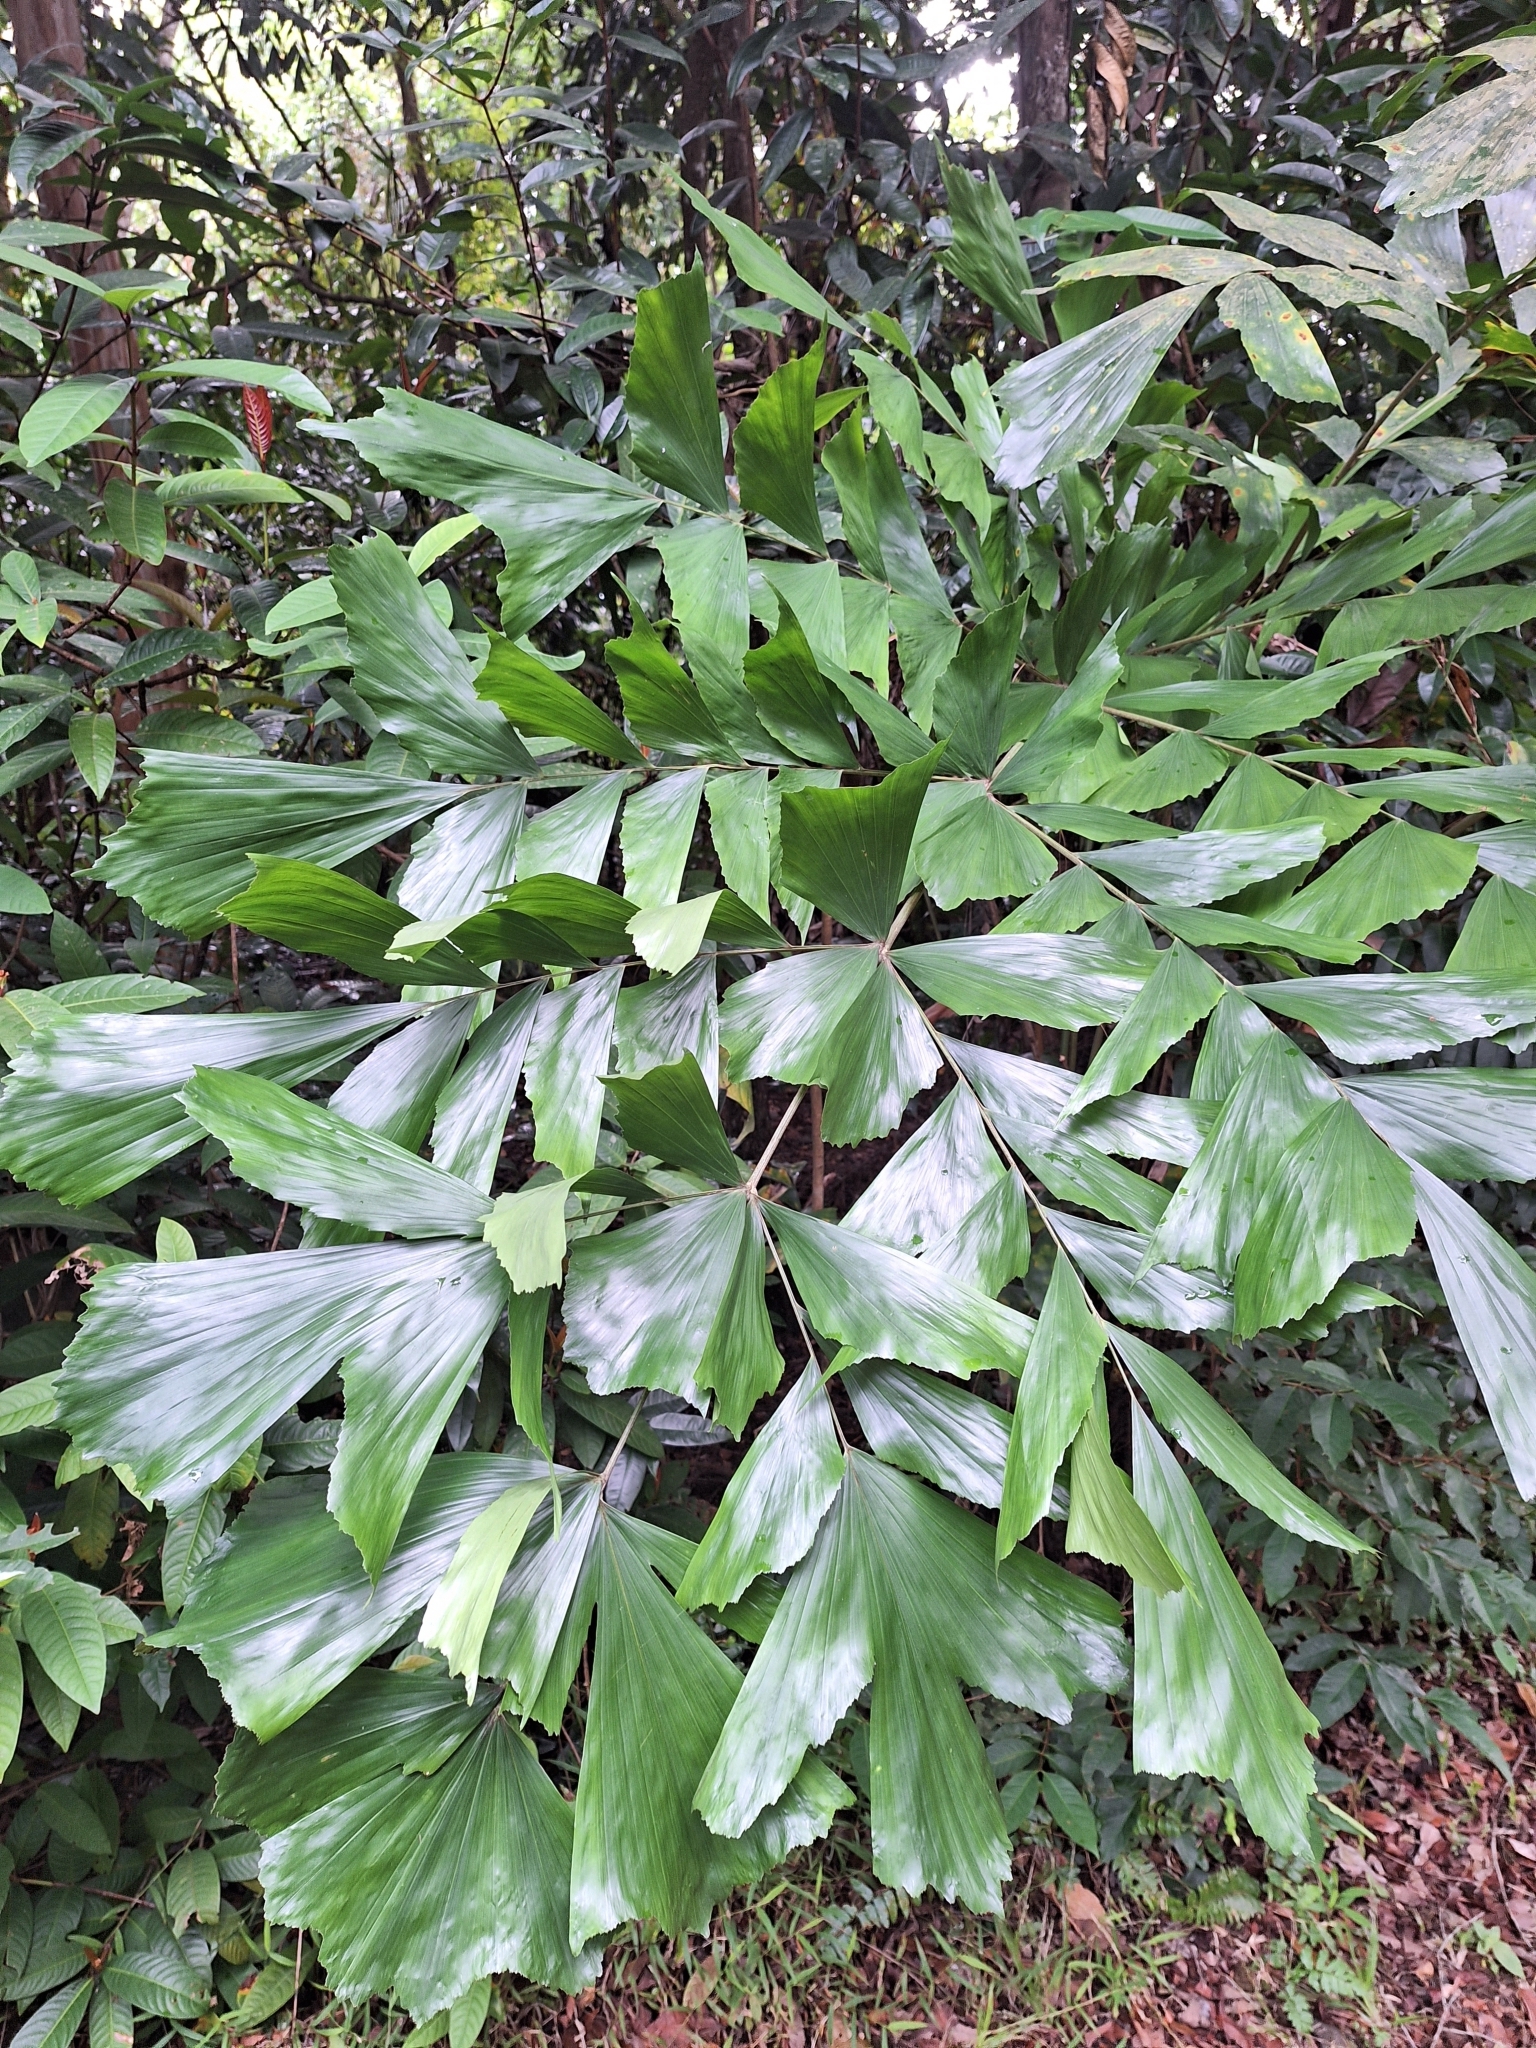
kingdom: Plantae
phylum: Tracheophyta
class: Liliopsida
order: Arecales
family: Arecaceae
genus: Caryota
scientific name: Caryota mitis
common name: Burmese fishtail palm
